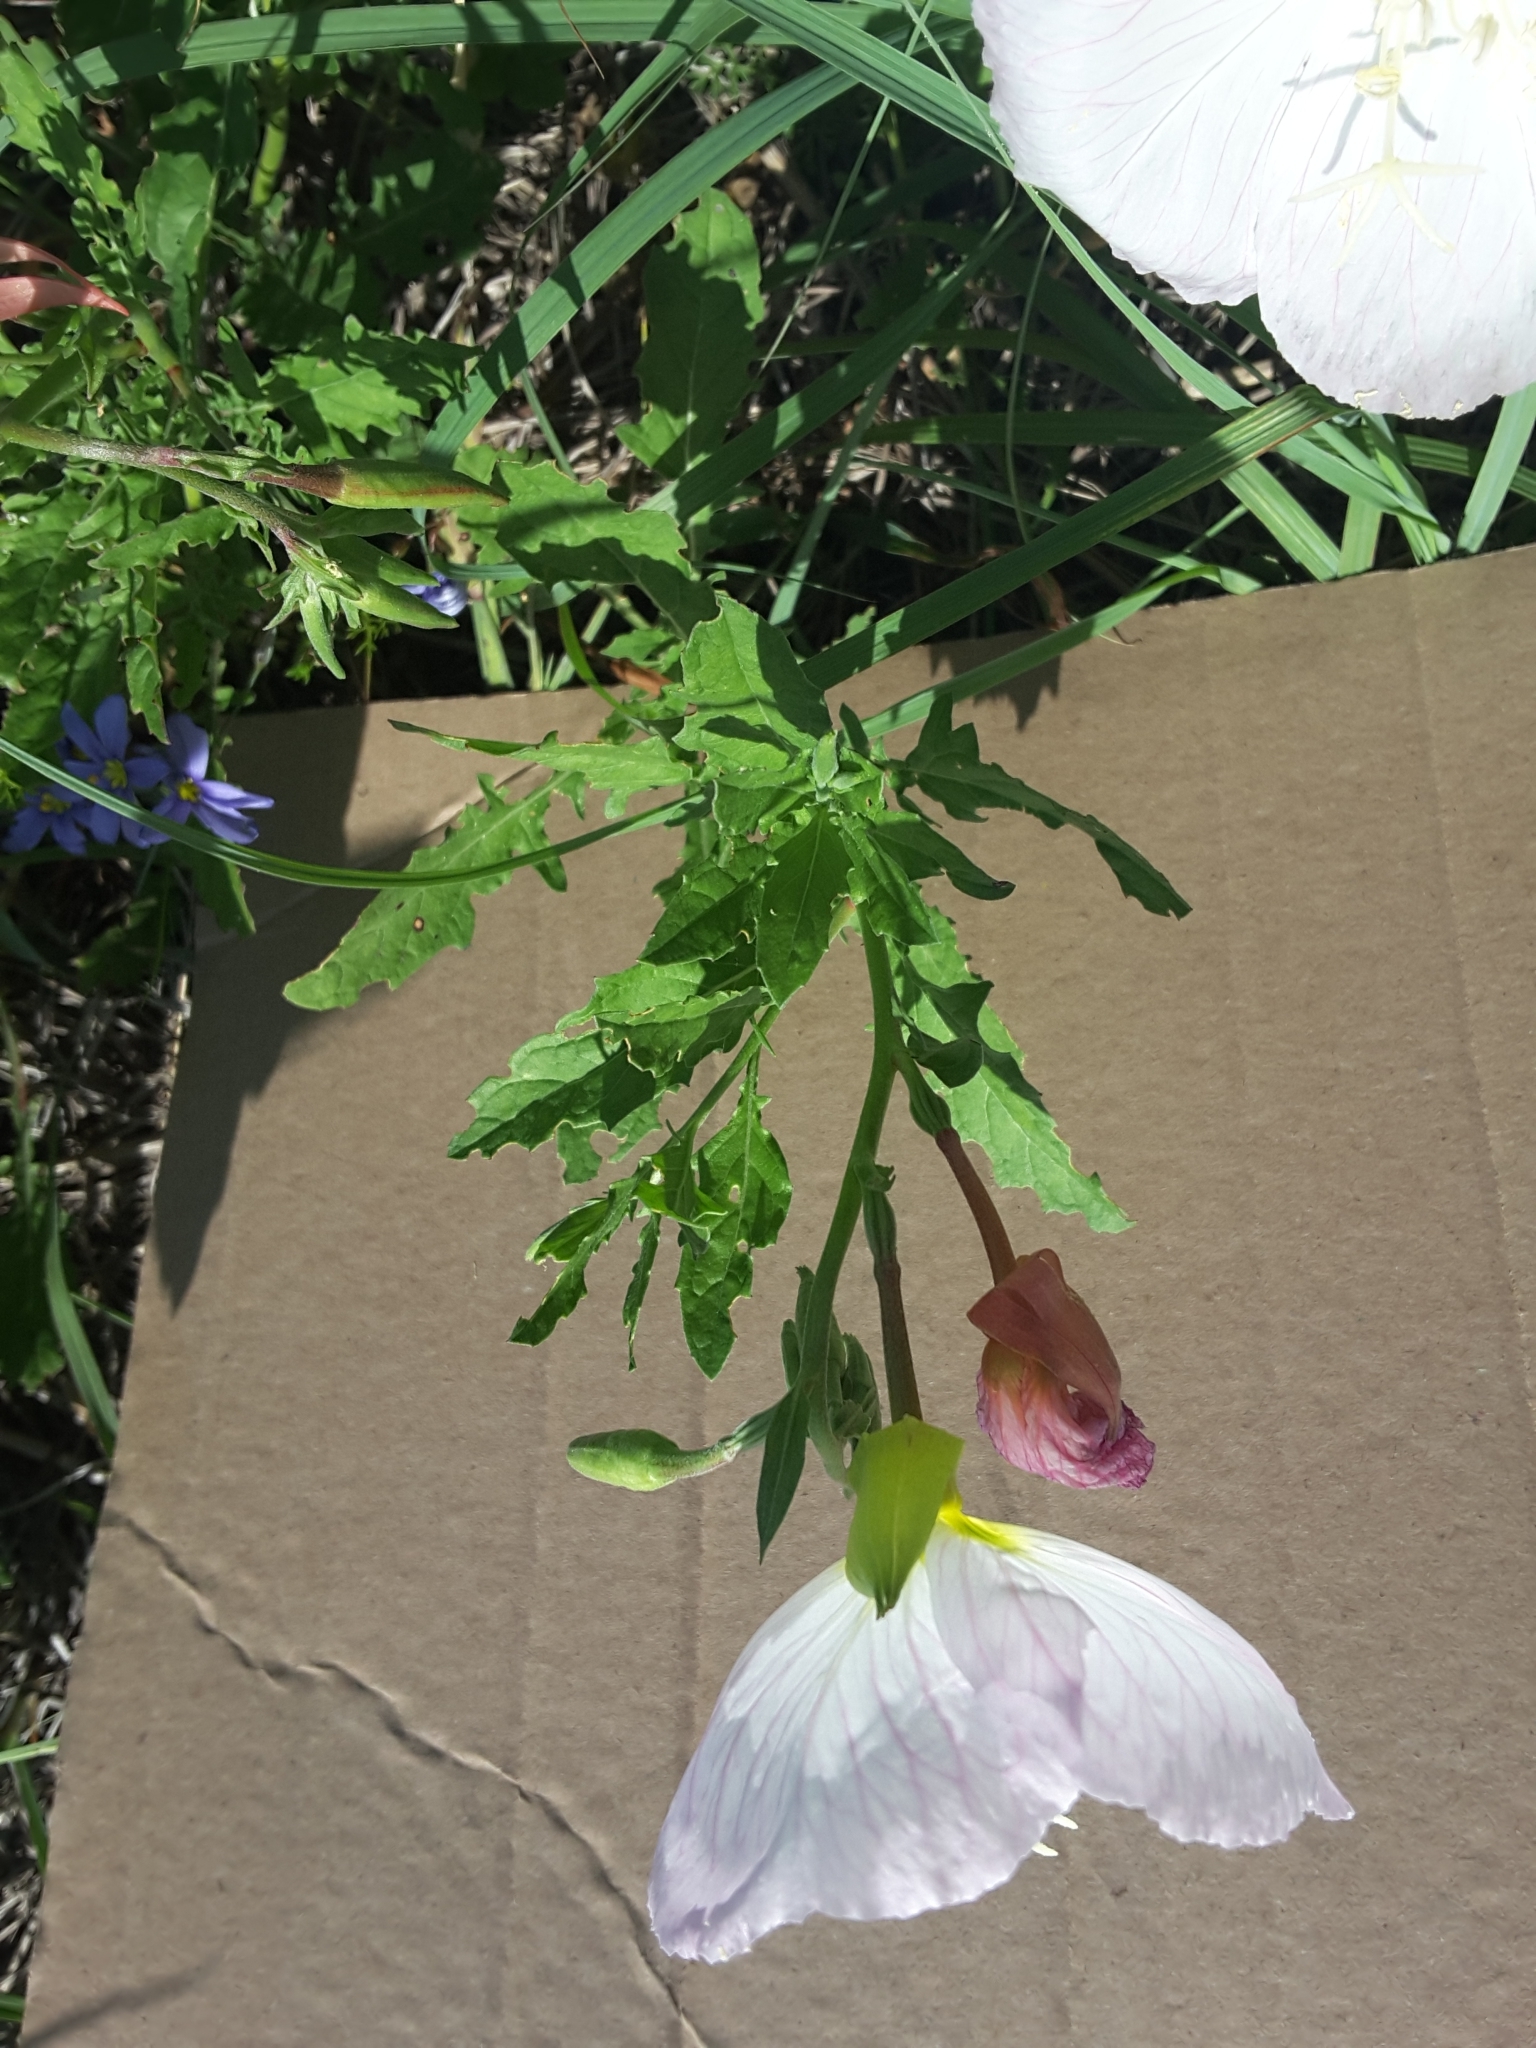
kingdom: Plantae
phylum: Tracheophyta
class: Magnoliopsida
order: Myrtales
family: Onagraceae
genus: Oenothera
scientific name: Oenothera speciosa
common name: White evening-primrose
